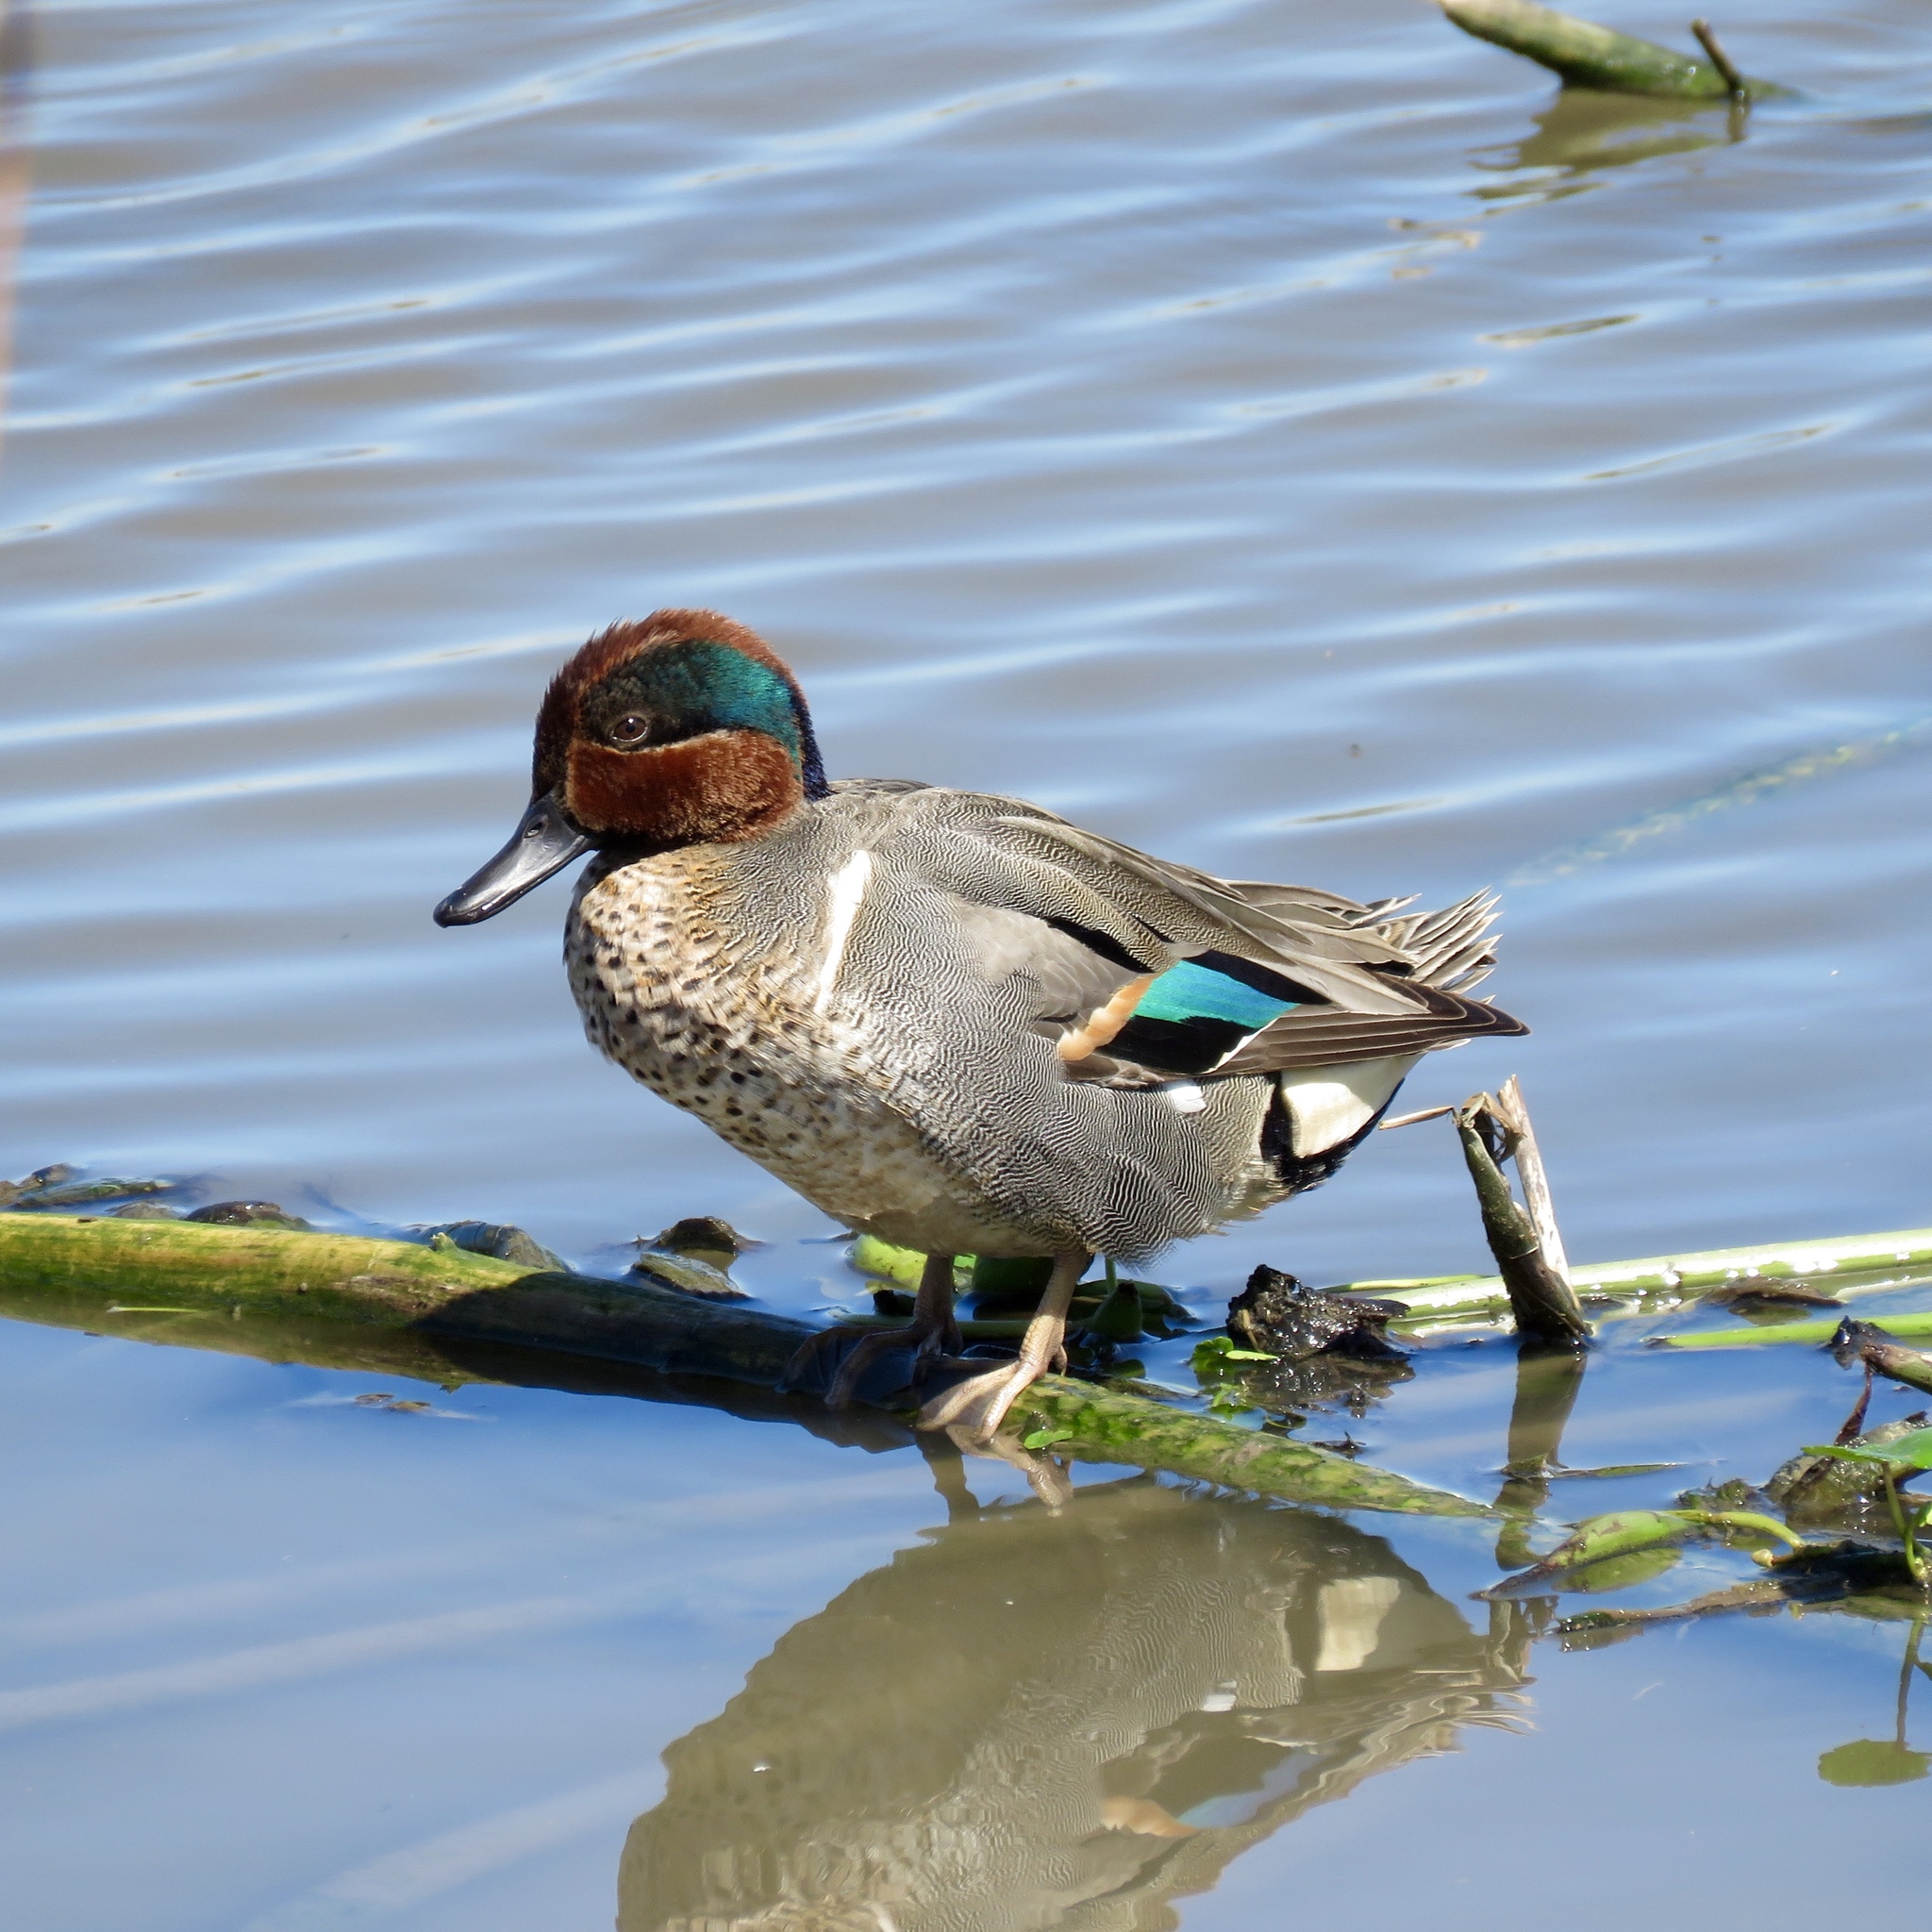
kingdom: Animalia
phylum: Chordata
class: Aves
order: Anseriformes
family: Anatidae
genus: Anas
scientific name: Anas crecca
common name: Eurasian teal
